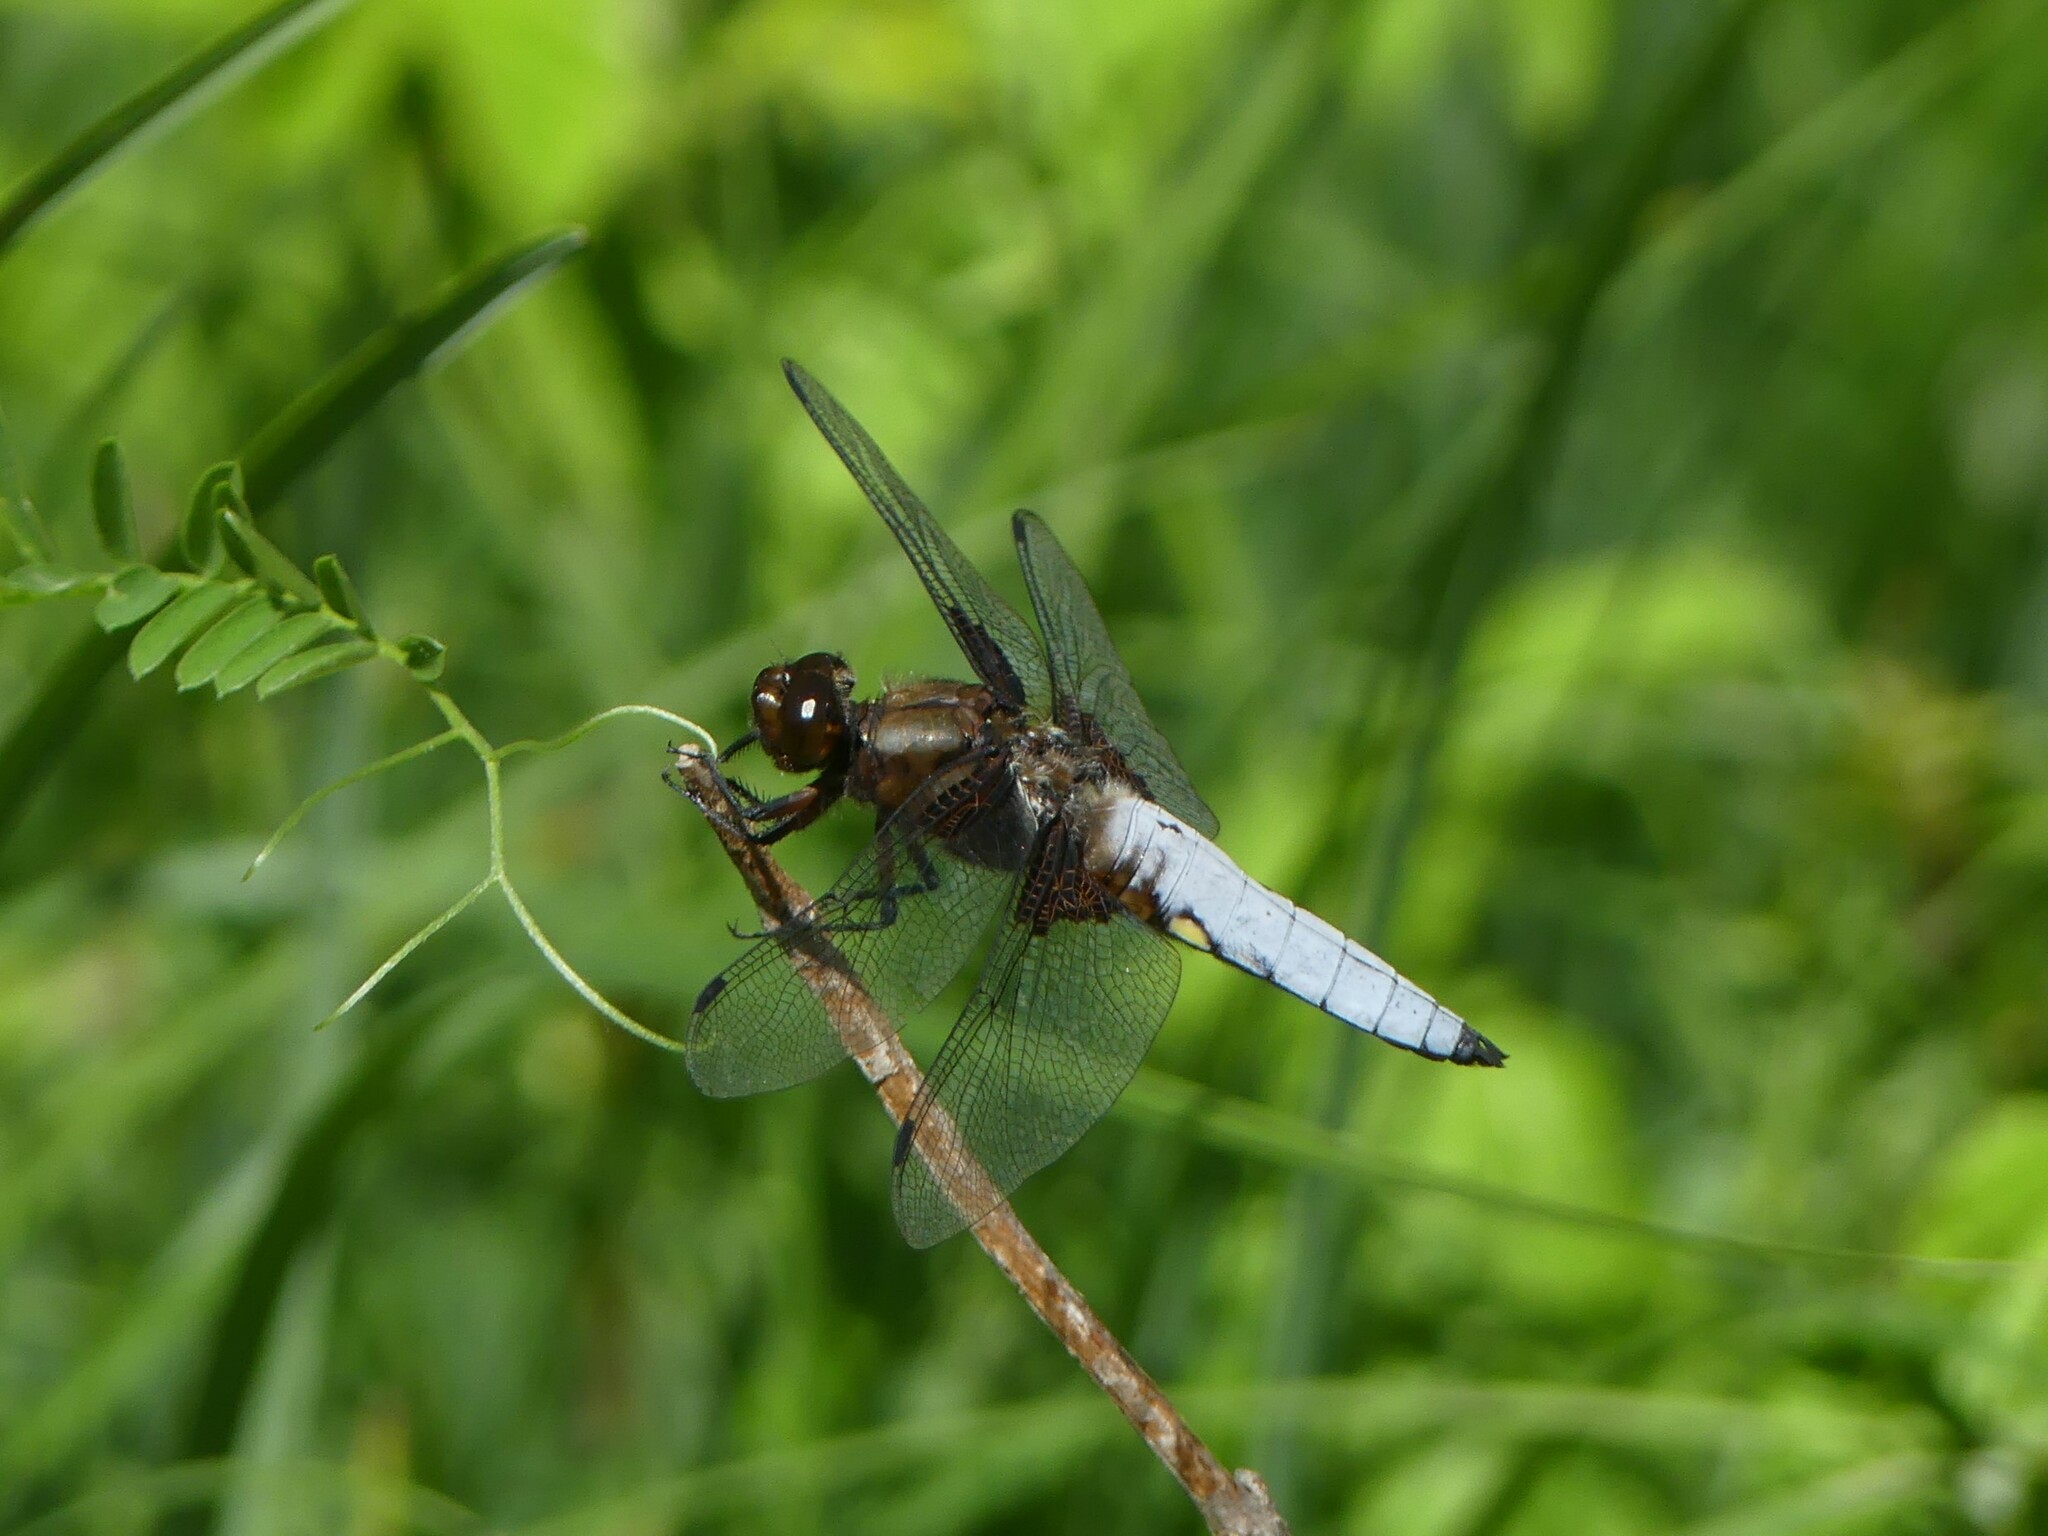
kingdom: Animalia
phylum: Arthropoda
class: Insecta
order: Odonata
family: Libellulidae
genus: Libellula
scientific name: Libellula depressa
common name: Broad-bodied chaser
